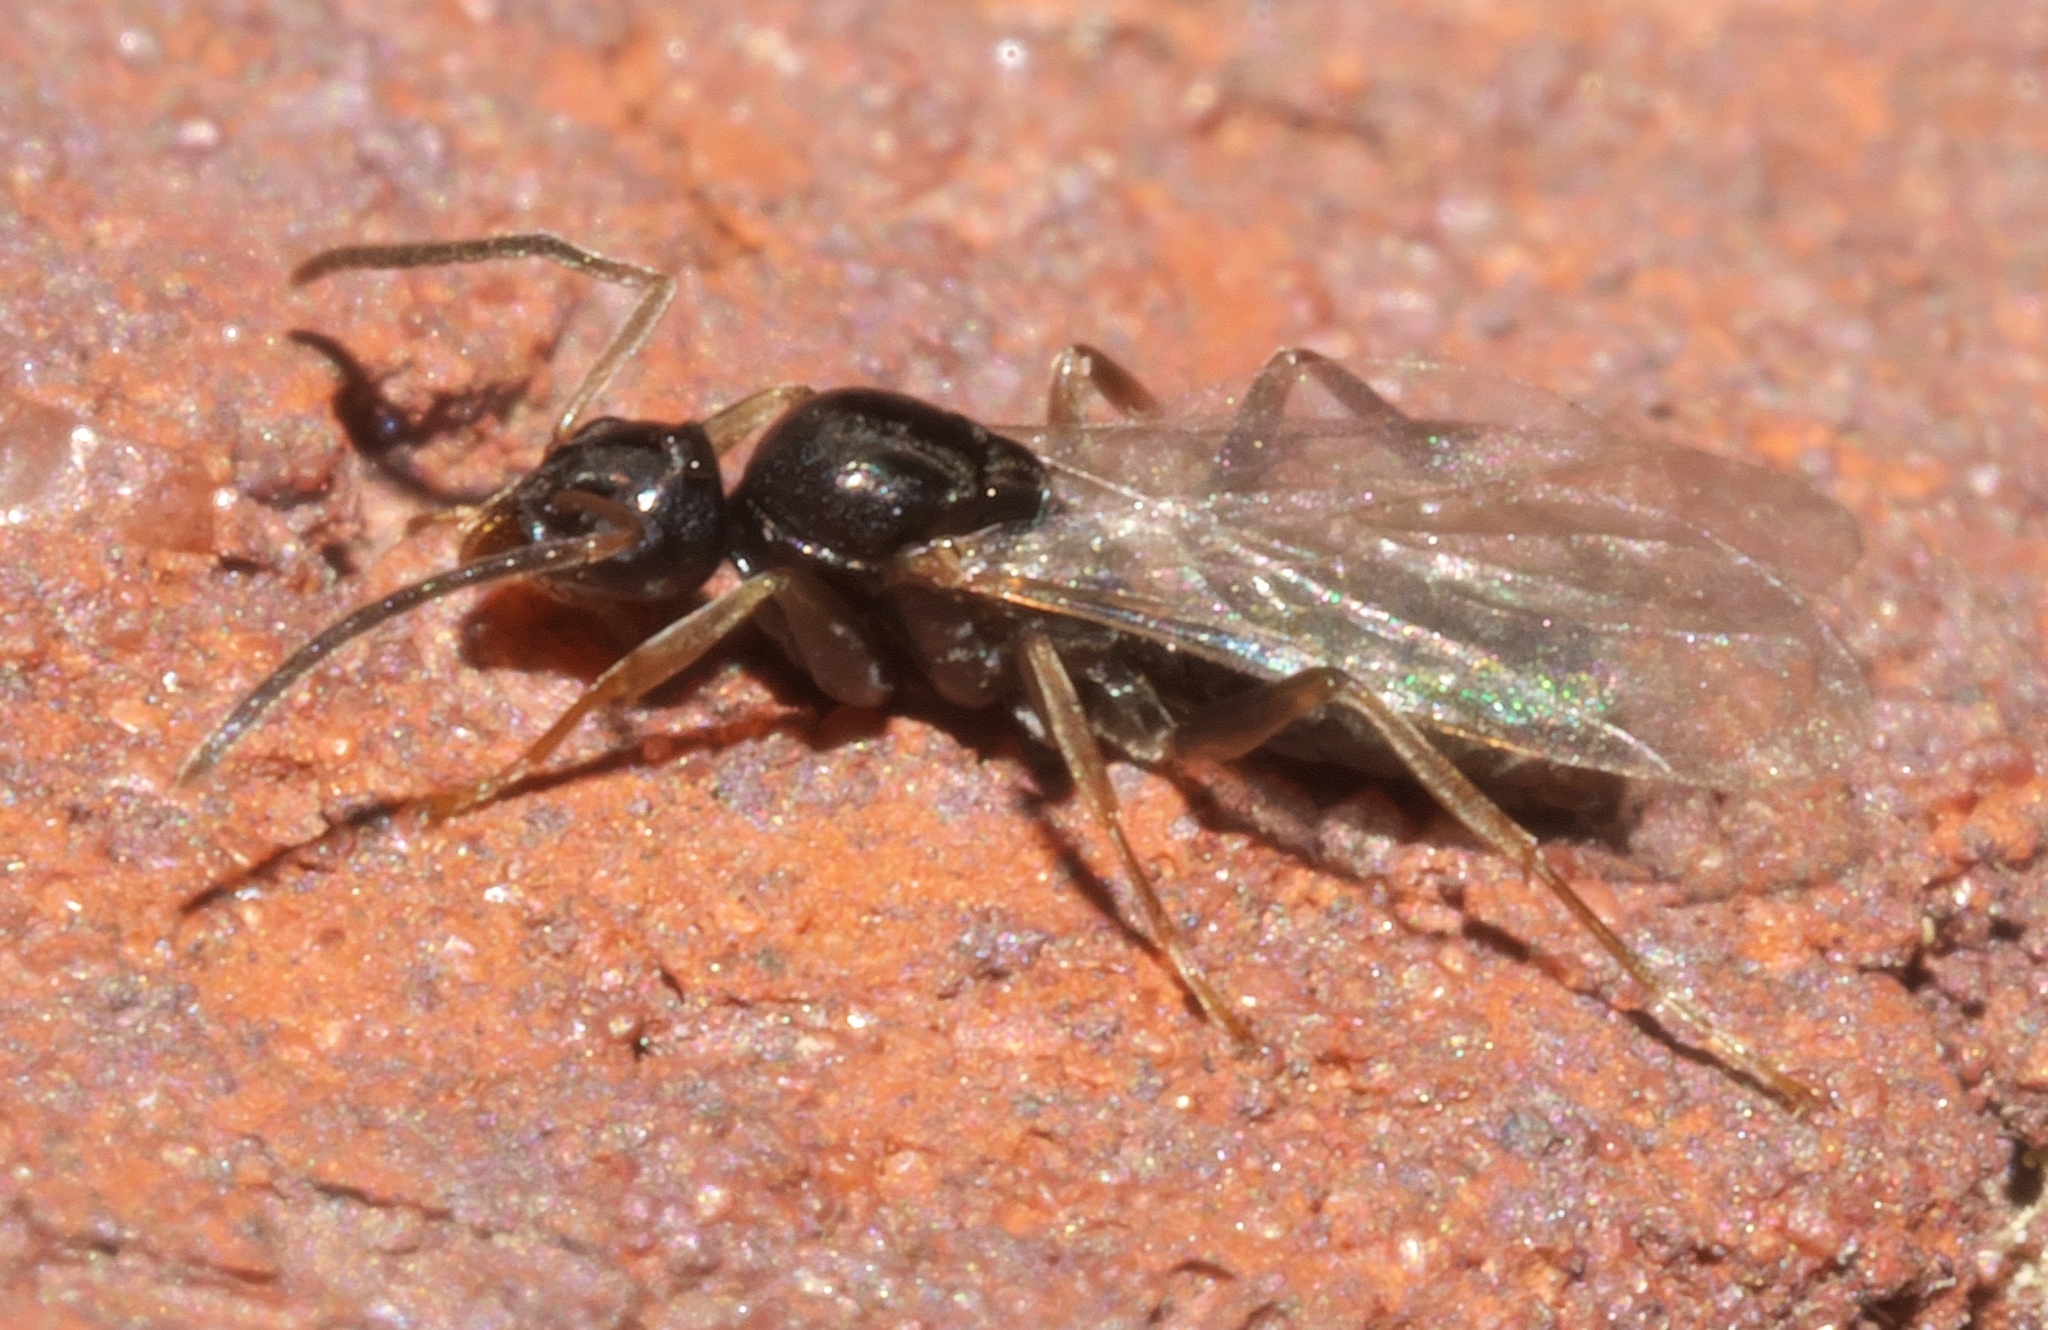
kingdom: Animalia
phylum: Arthropoda
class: Insecta
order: Hymenoptera
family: Formicidae
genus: Tapinoma
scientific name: Tapinoma sessile
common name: Odorous house ant
